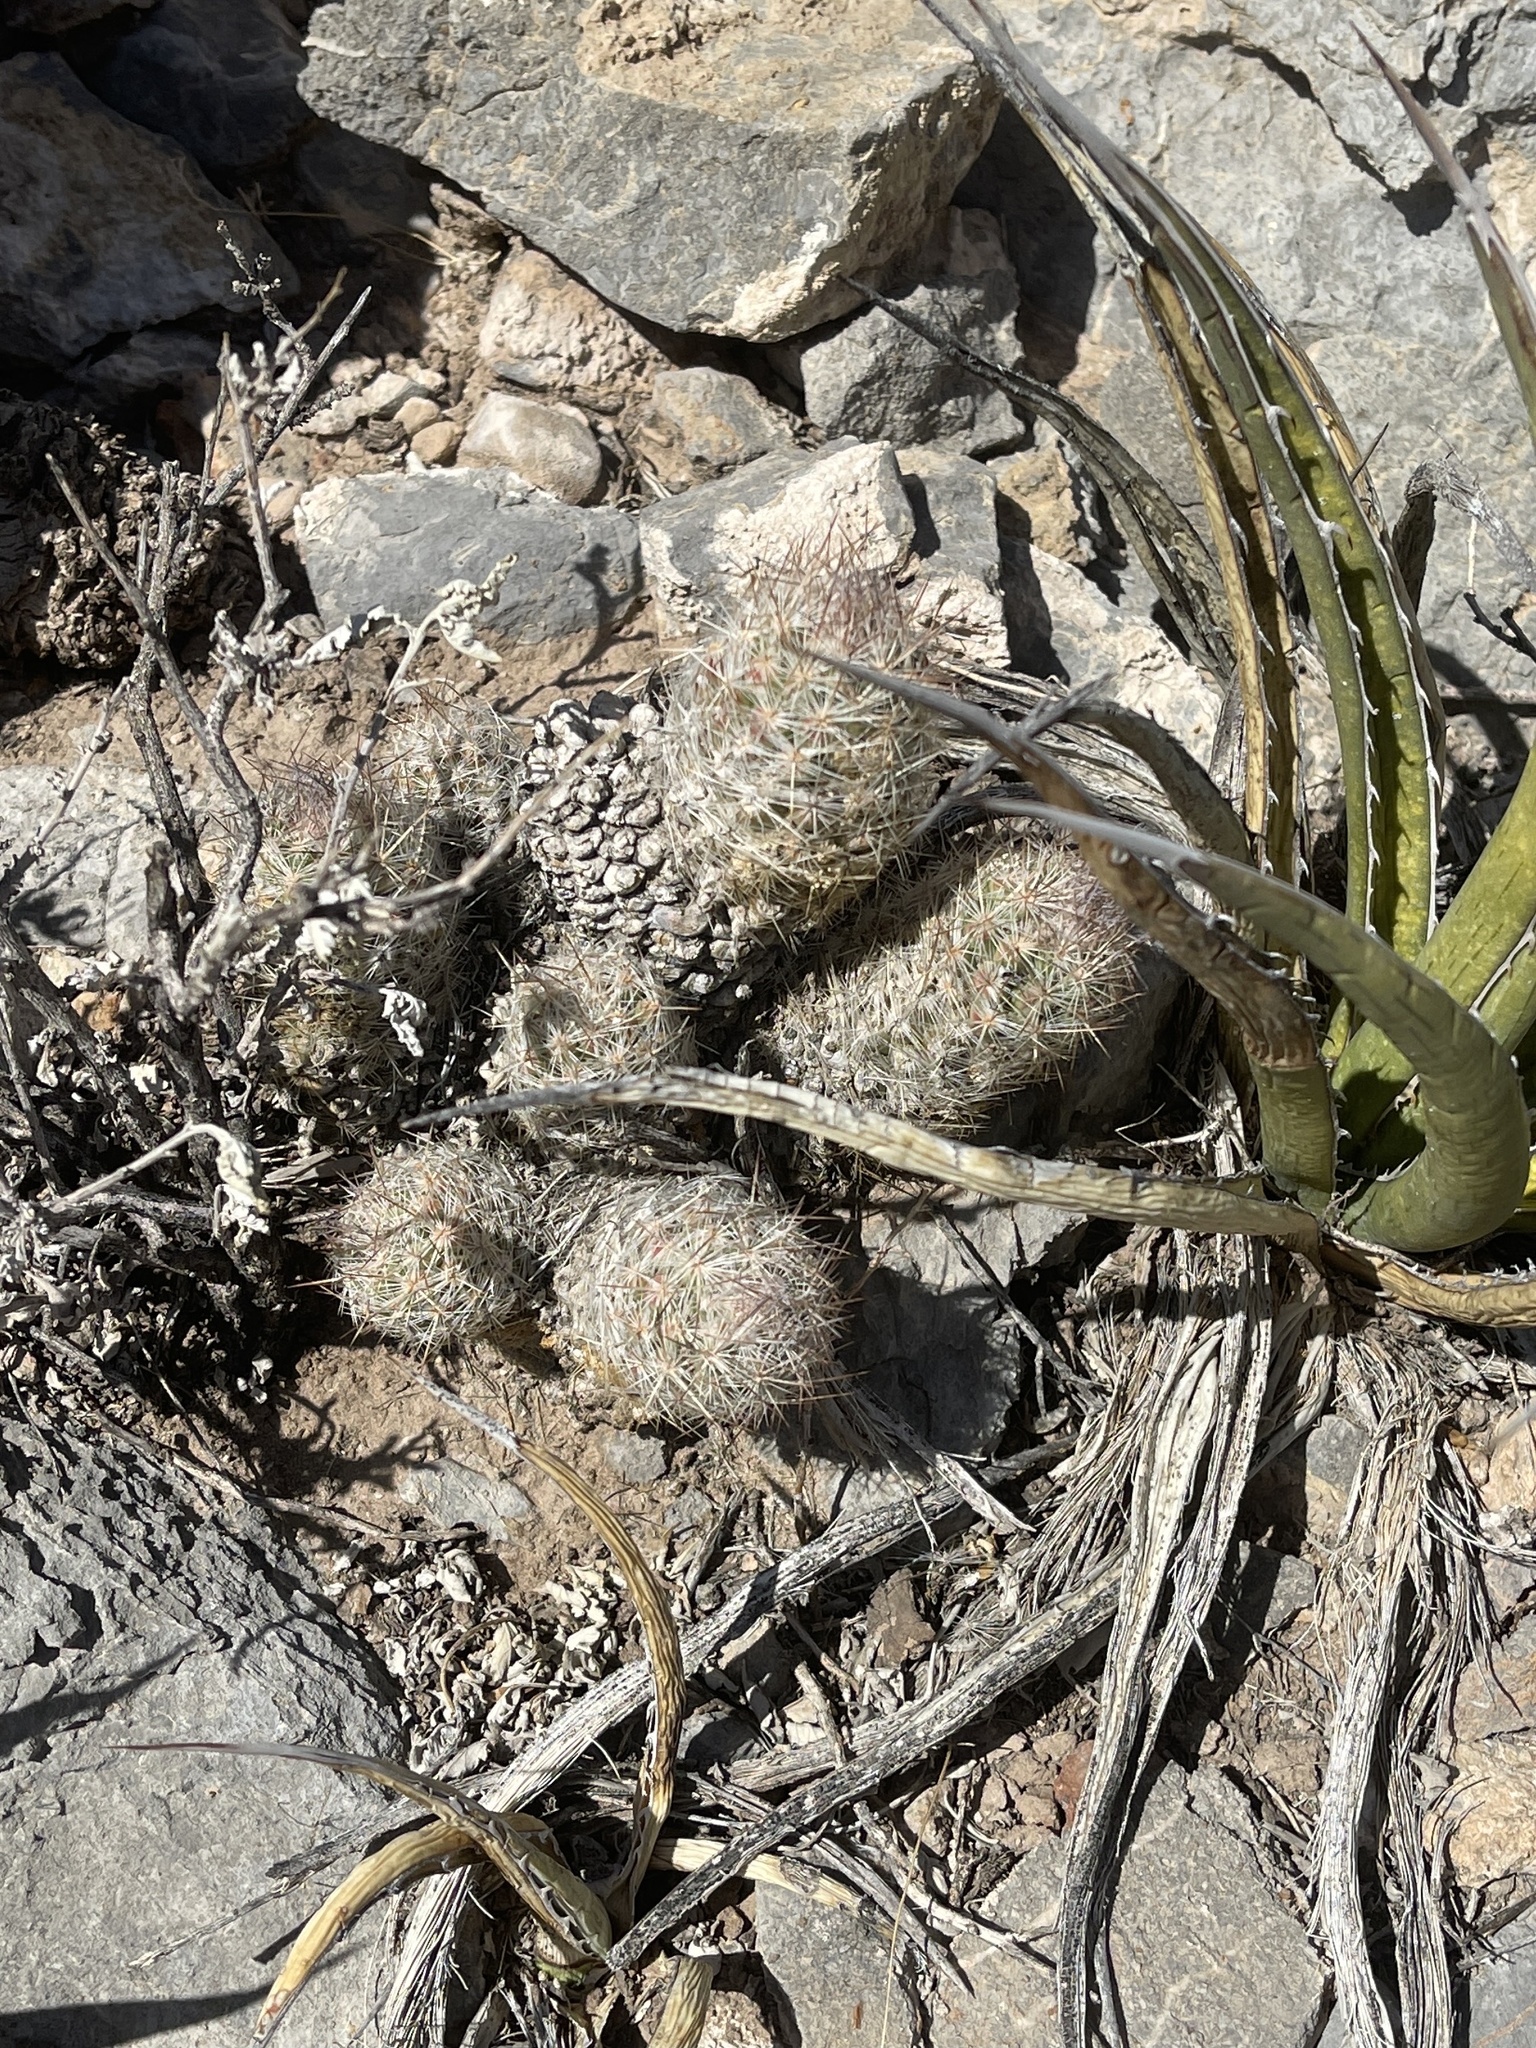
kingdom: Plantae
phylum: Tracheophyta
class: Magnoliopsida
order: Caryophyllales
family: Cactaceae
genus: Pelecyphora
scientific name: Pelecyphora tuberculosa
